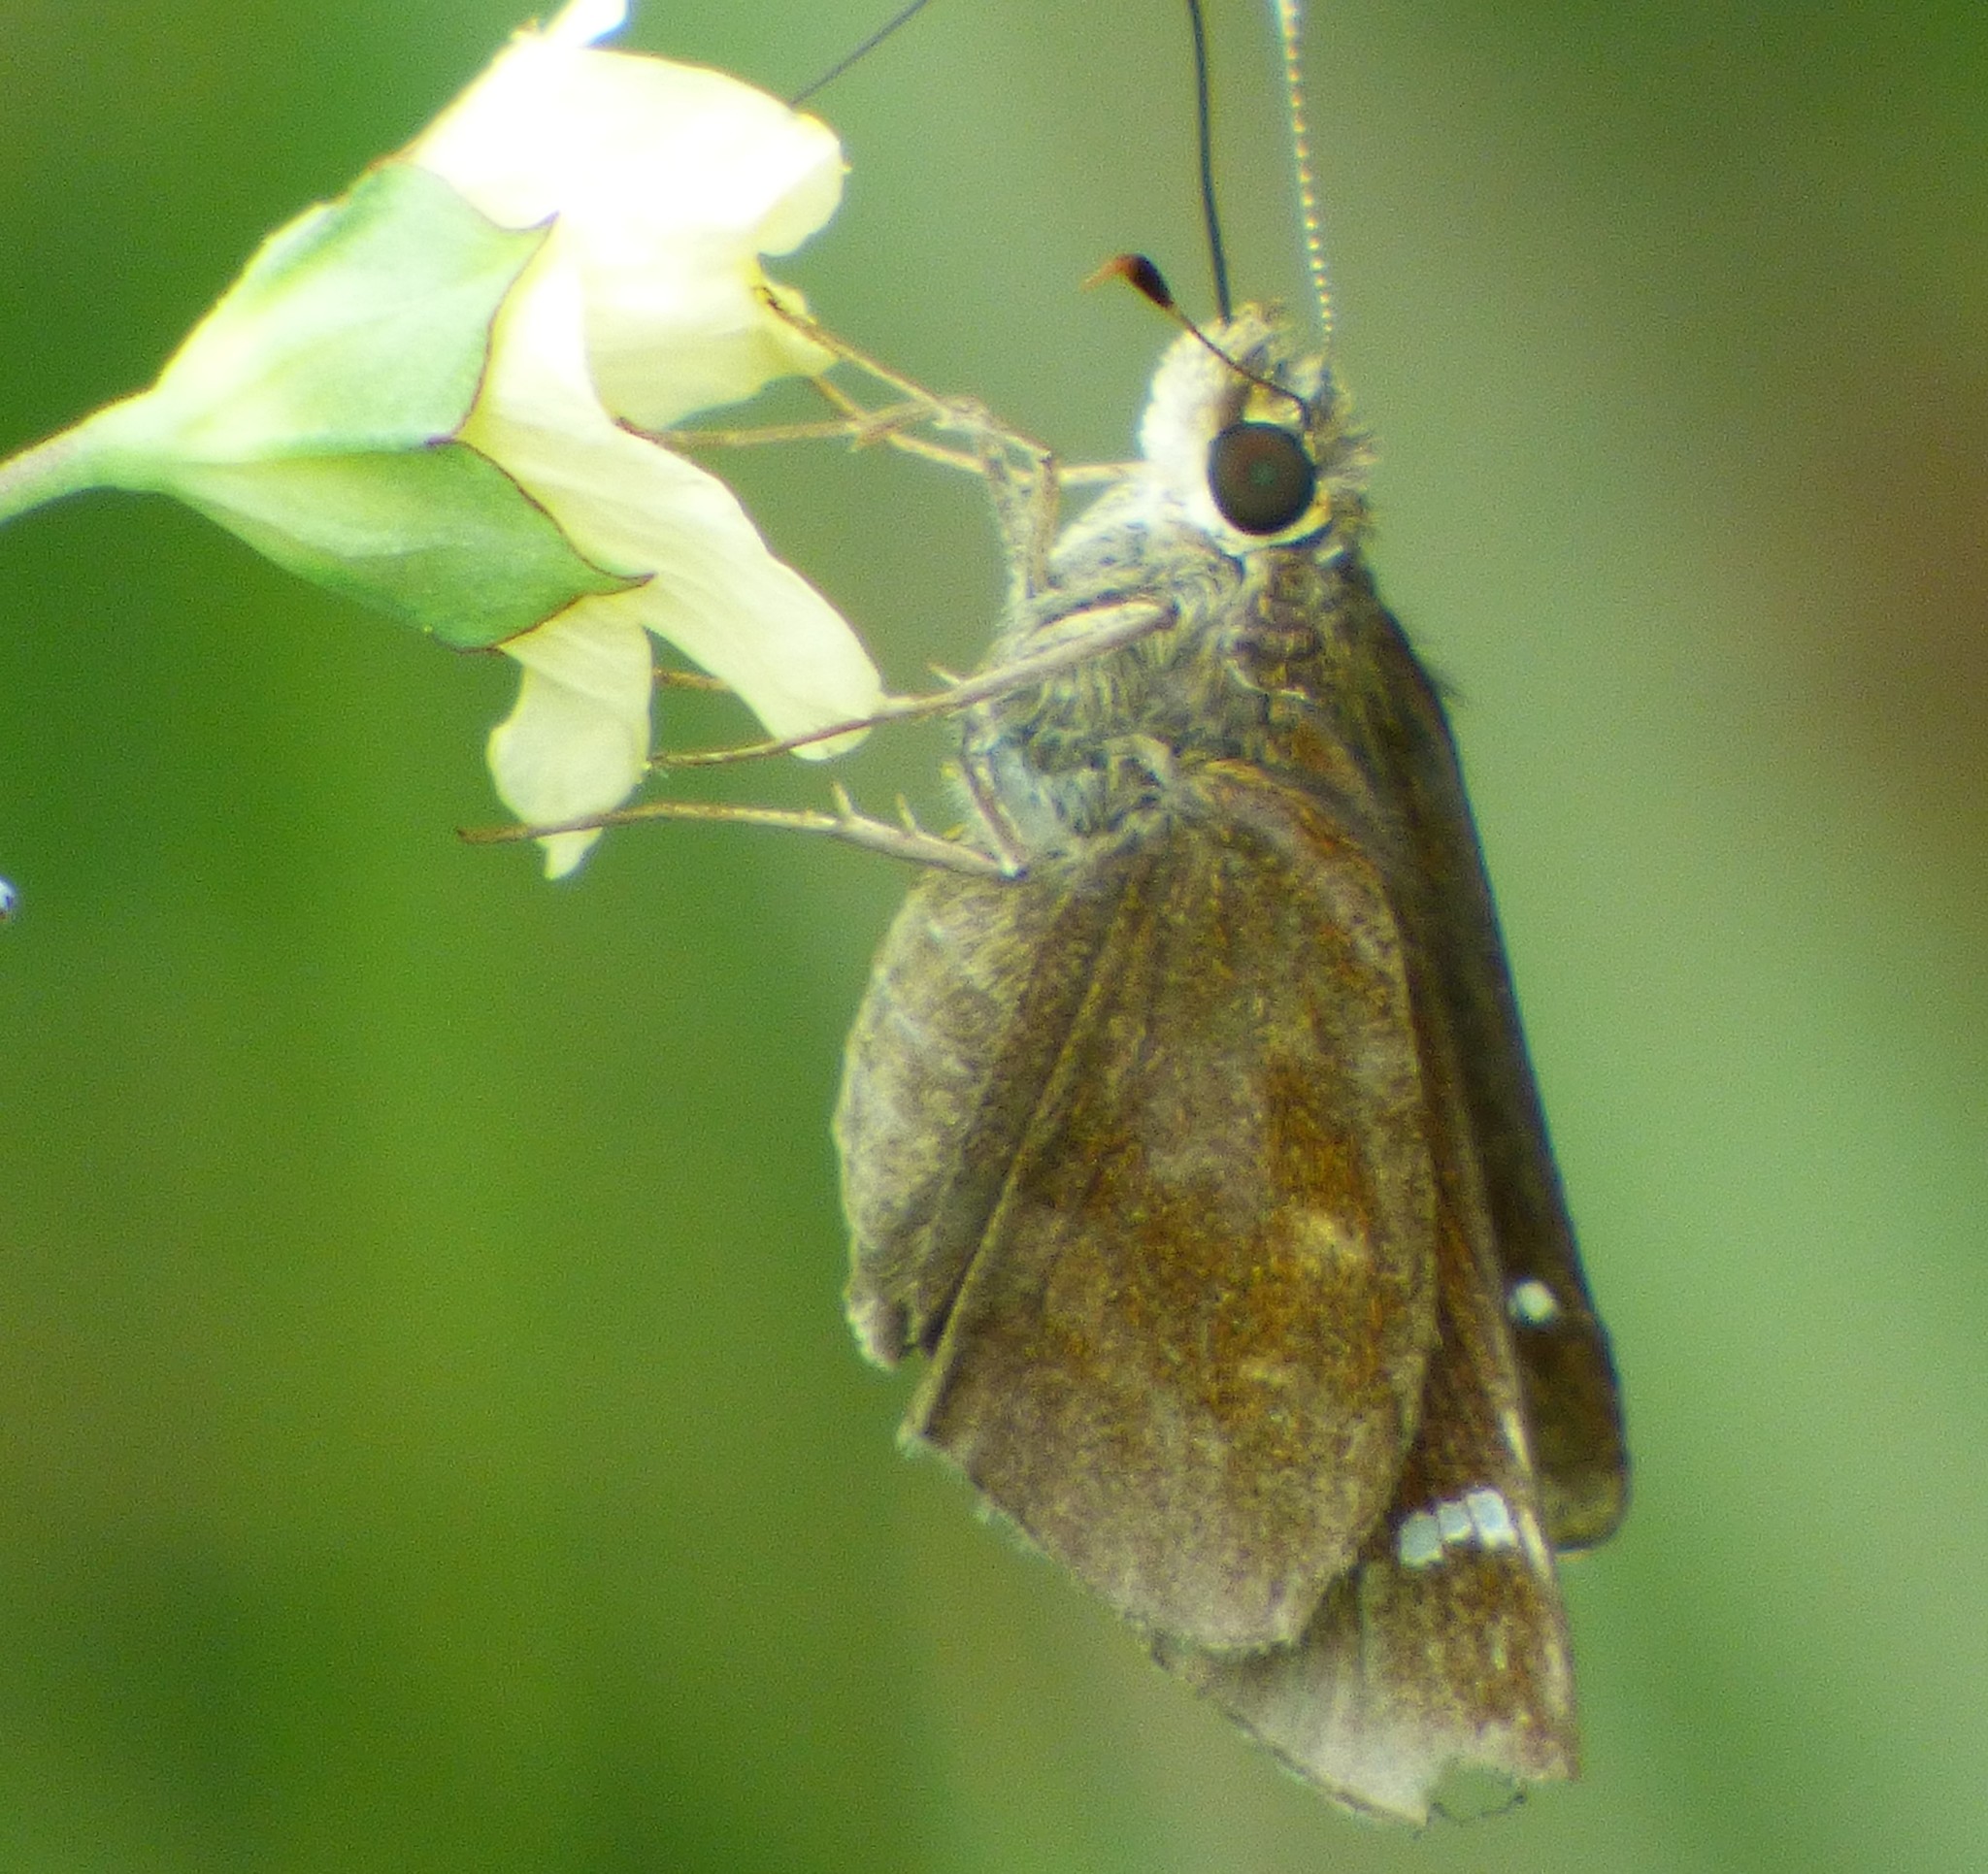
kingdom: Animalia
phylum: Arthropoda
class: Insecta
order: Lepidoptera
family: Hesperiidae
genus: Lerema
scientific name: Lerema accius
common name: Clouded skipper
